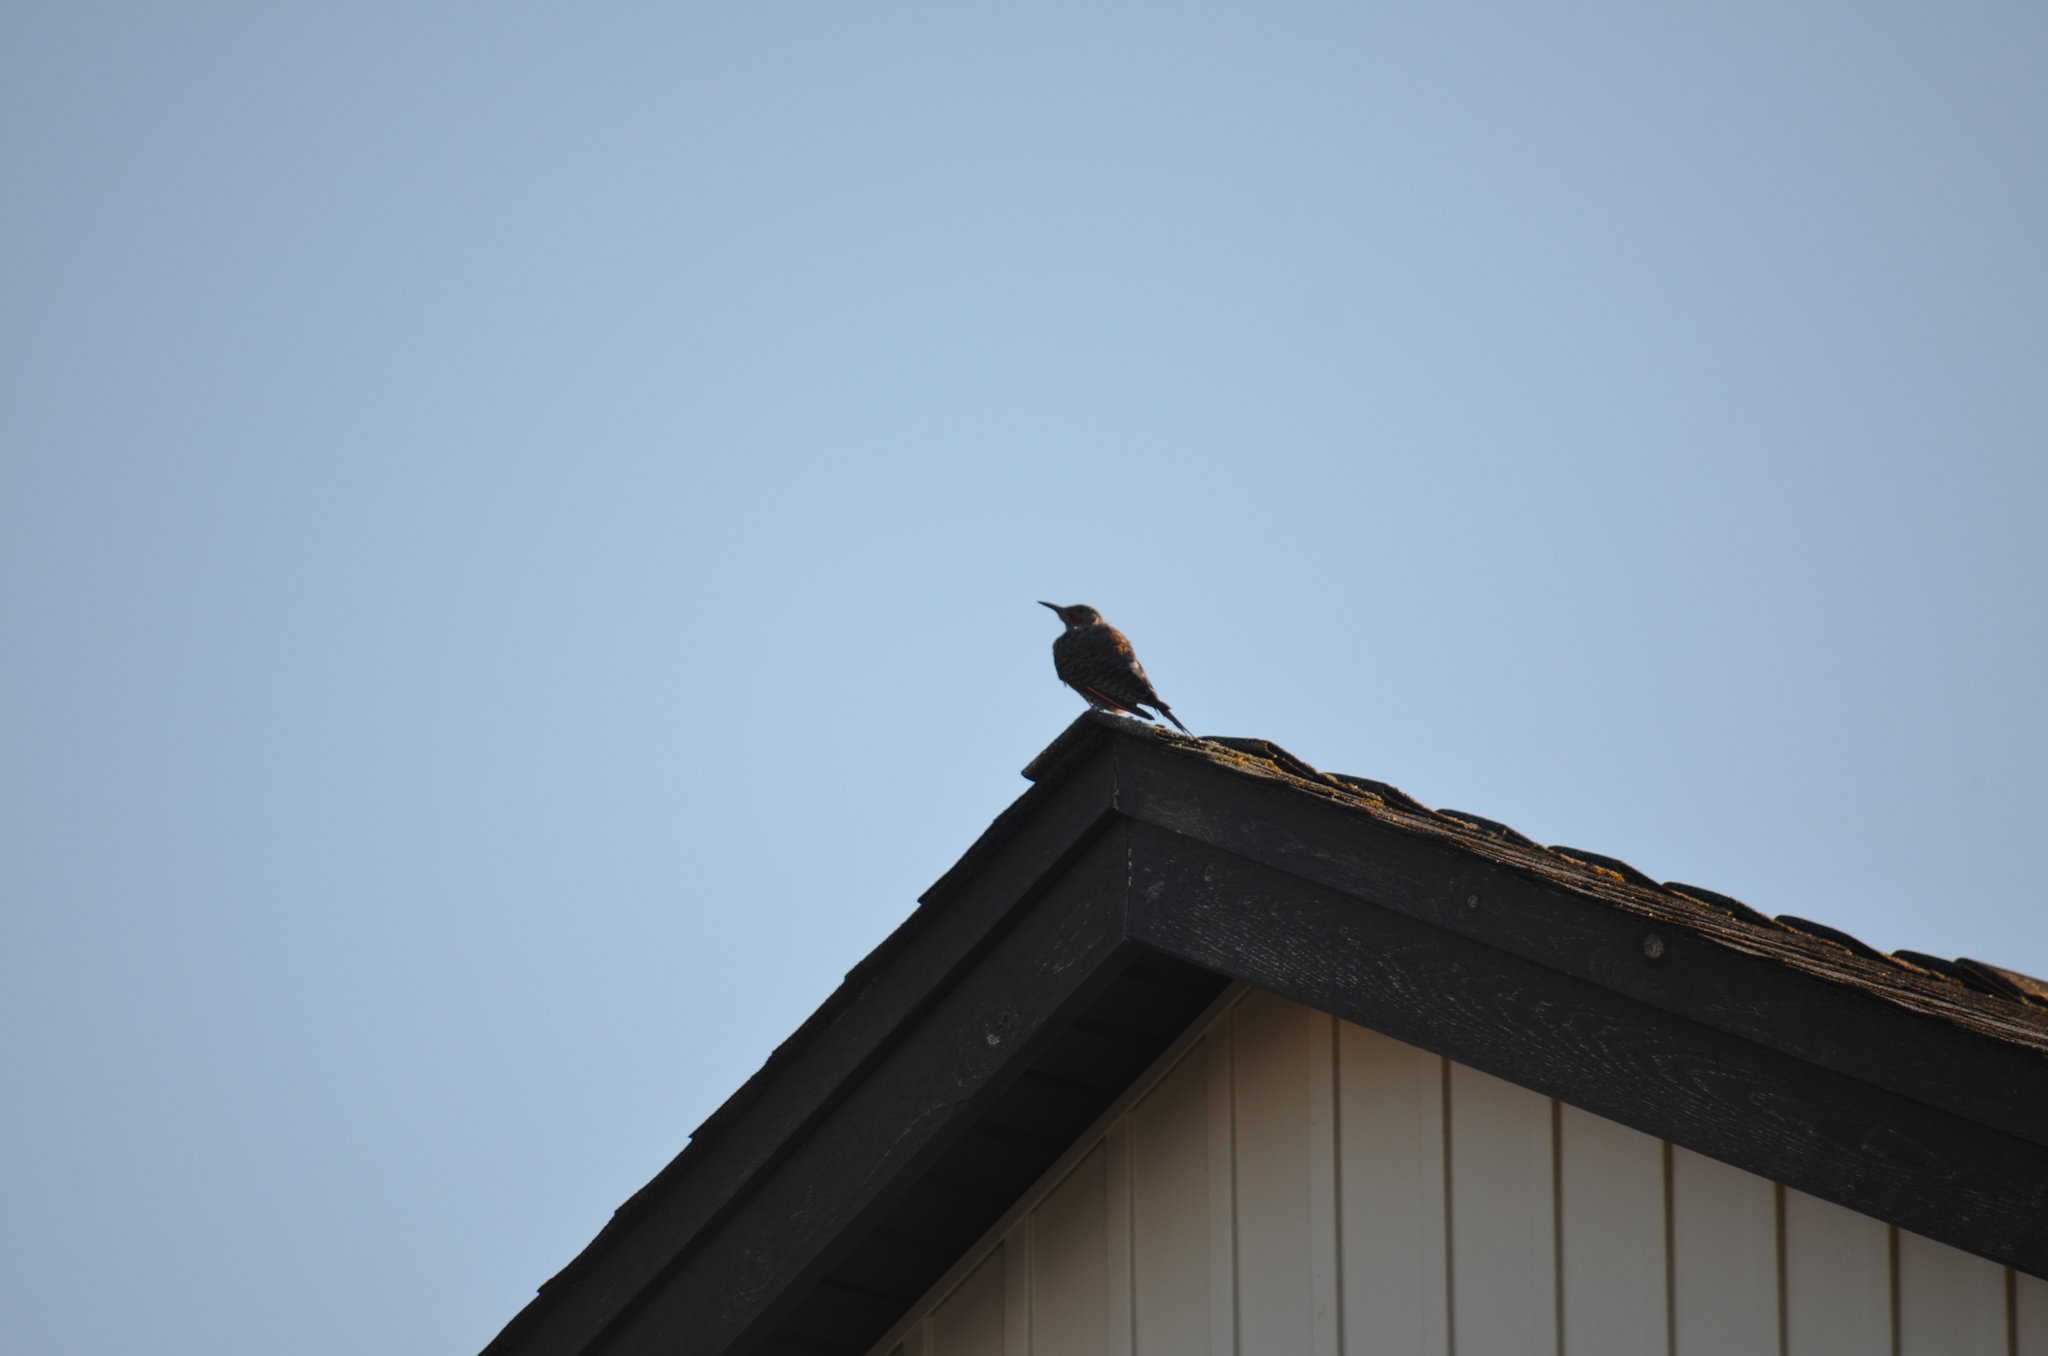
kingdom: Animalia
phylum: Chordata
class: Aves
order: Piciformes
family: Picidae
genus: Colaptes
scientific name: Colaptes auratus
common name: Northern flicker
